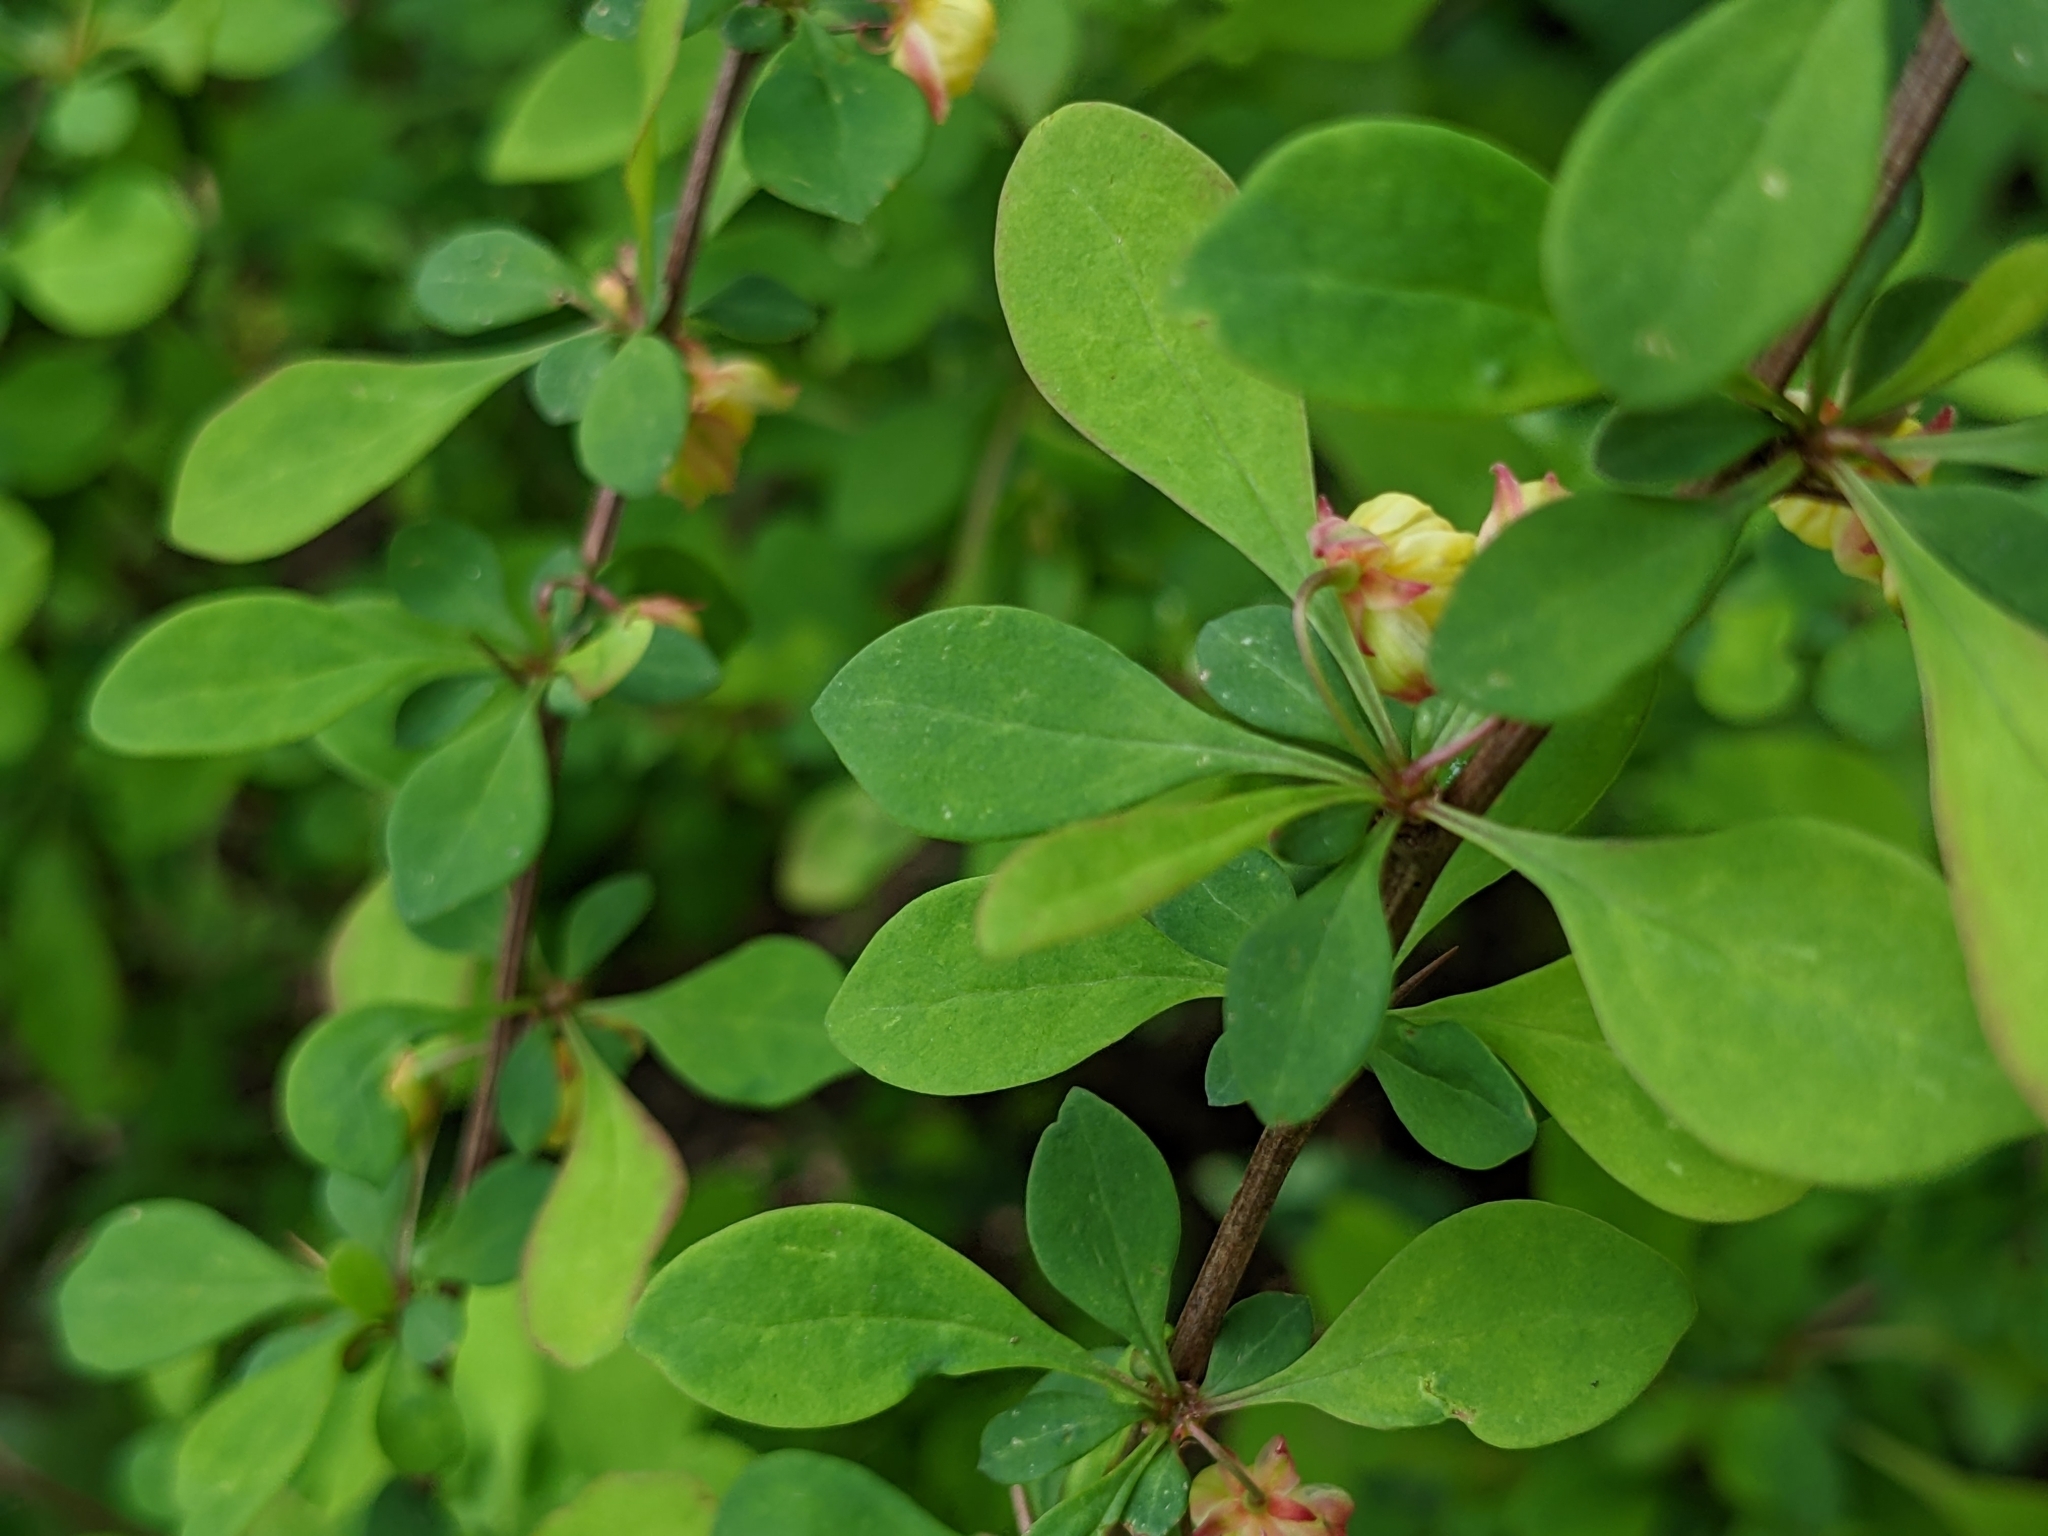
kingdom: Plantae
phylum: Tracheophyta
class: Magnoliopsida
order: Ranunculales
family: Berberidaceae
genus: Berberis
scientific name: Berberis thunbergii
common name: Japanese barberry
